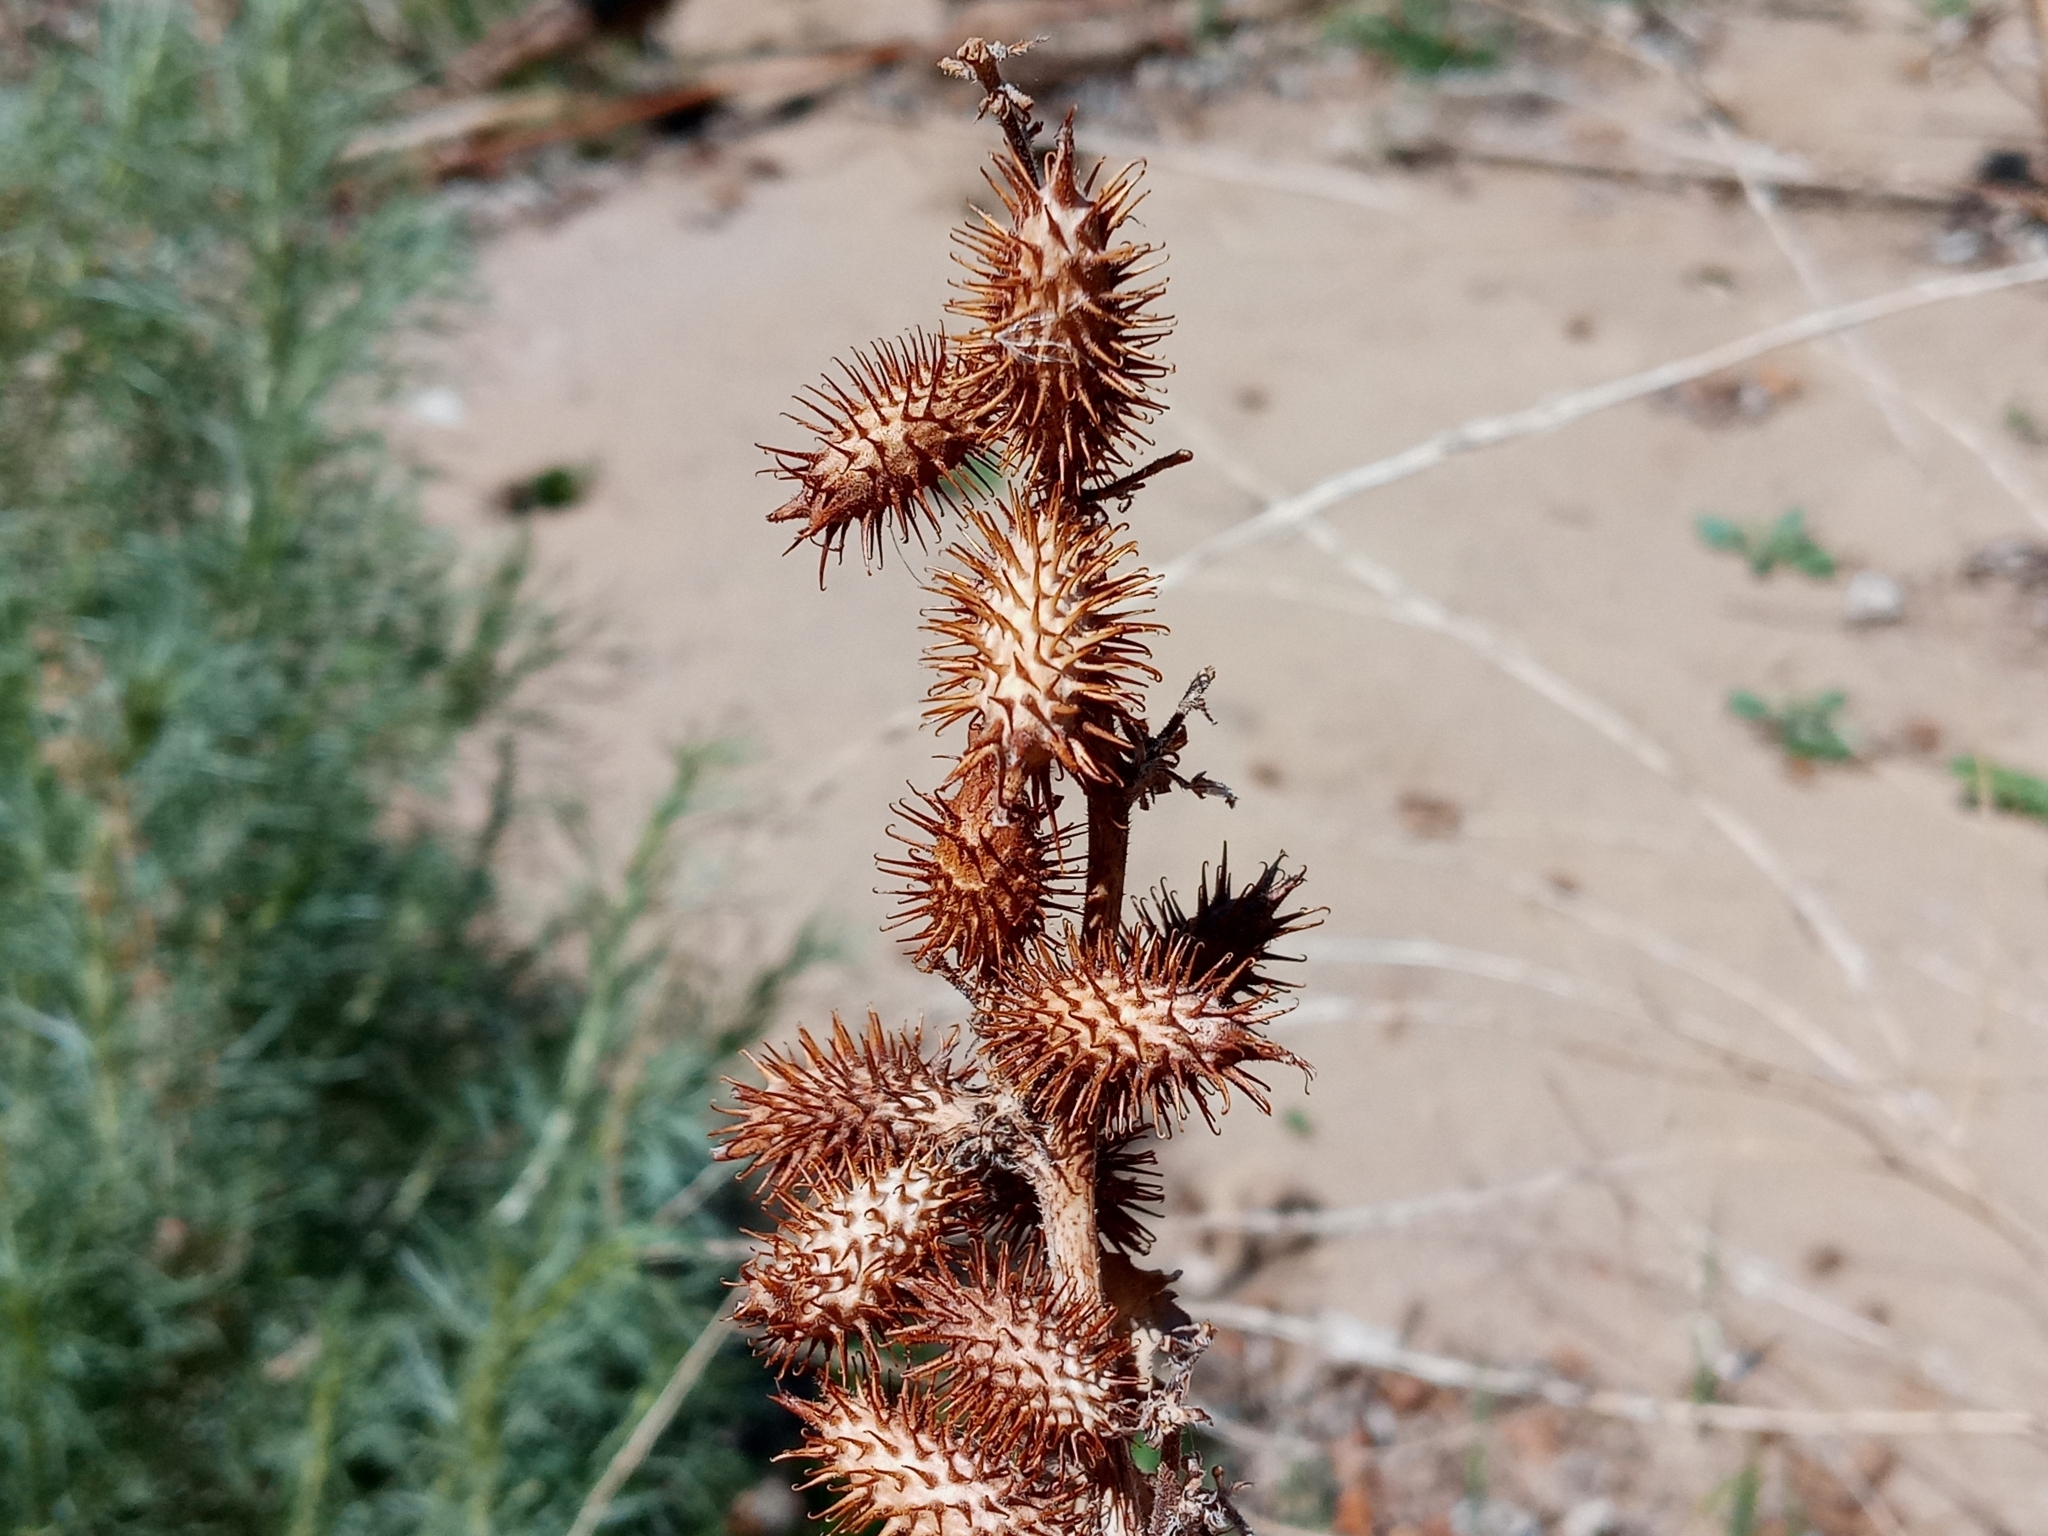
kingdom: Plantae
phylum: Tracheophyta
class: Magnoliopsida
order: Asterales
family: Asteraceae
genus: Xanthium
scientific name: Xanthium strumarium
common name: Rough cocklebur
